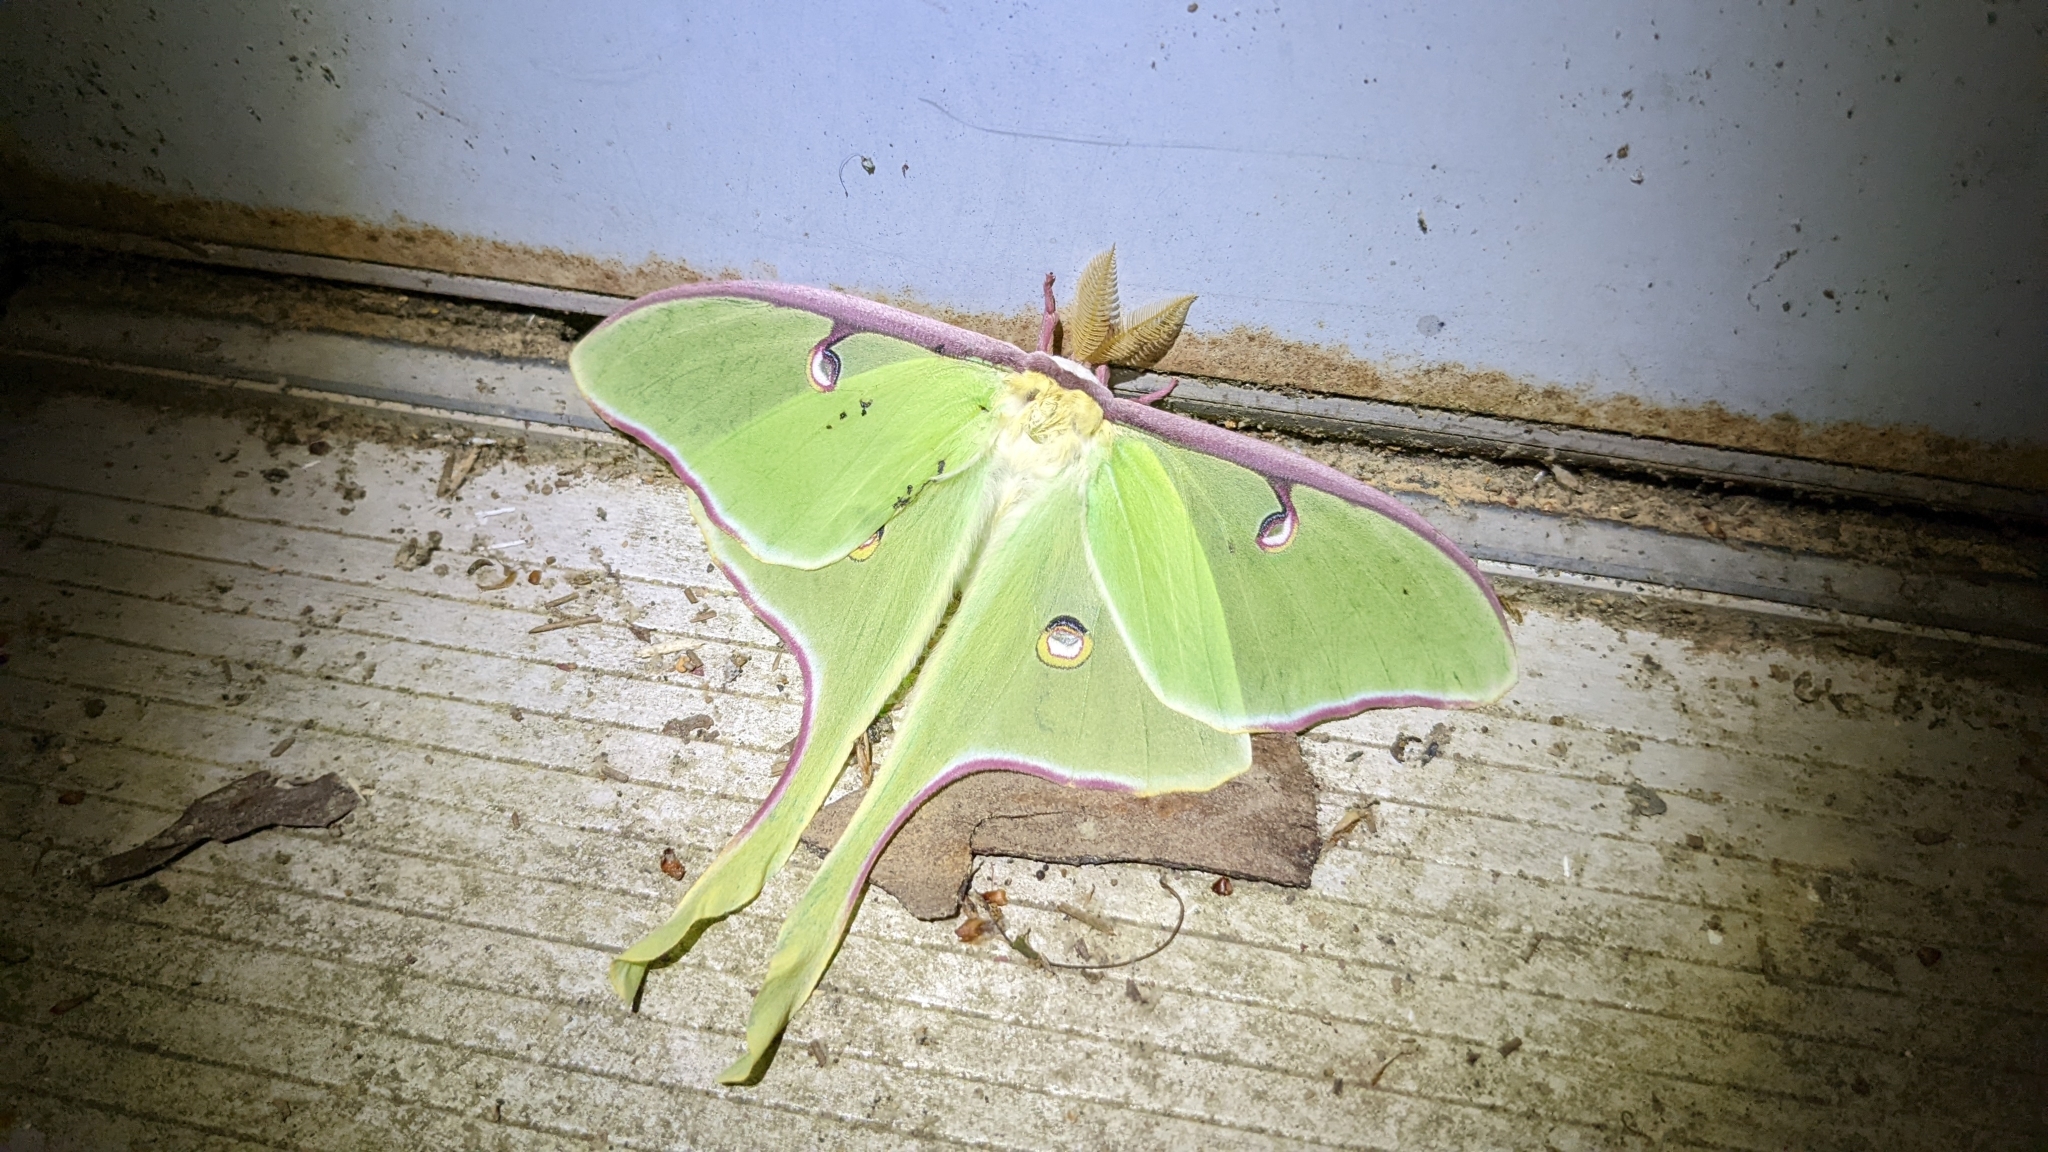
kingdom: Animalia
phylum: Arthropoda
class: Insecta
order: Lepidoptera
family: Saturniidae
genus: Actias
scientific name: Actias luna
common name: Luna moth
